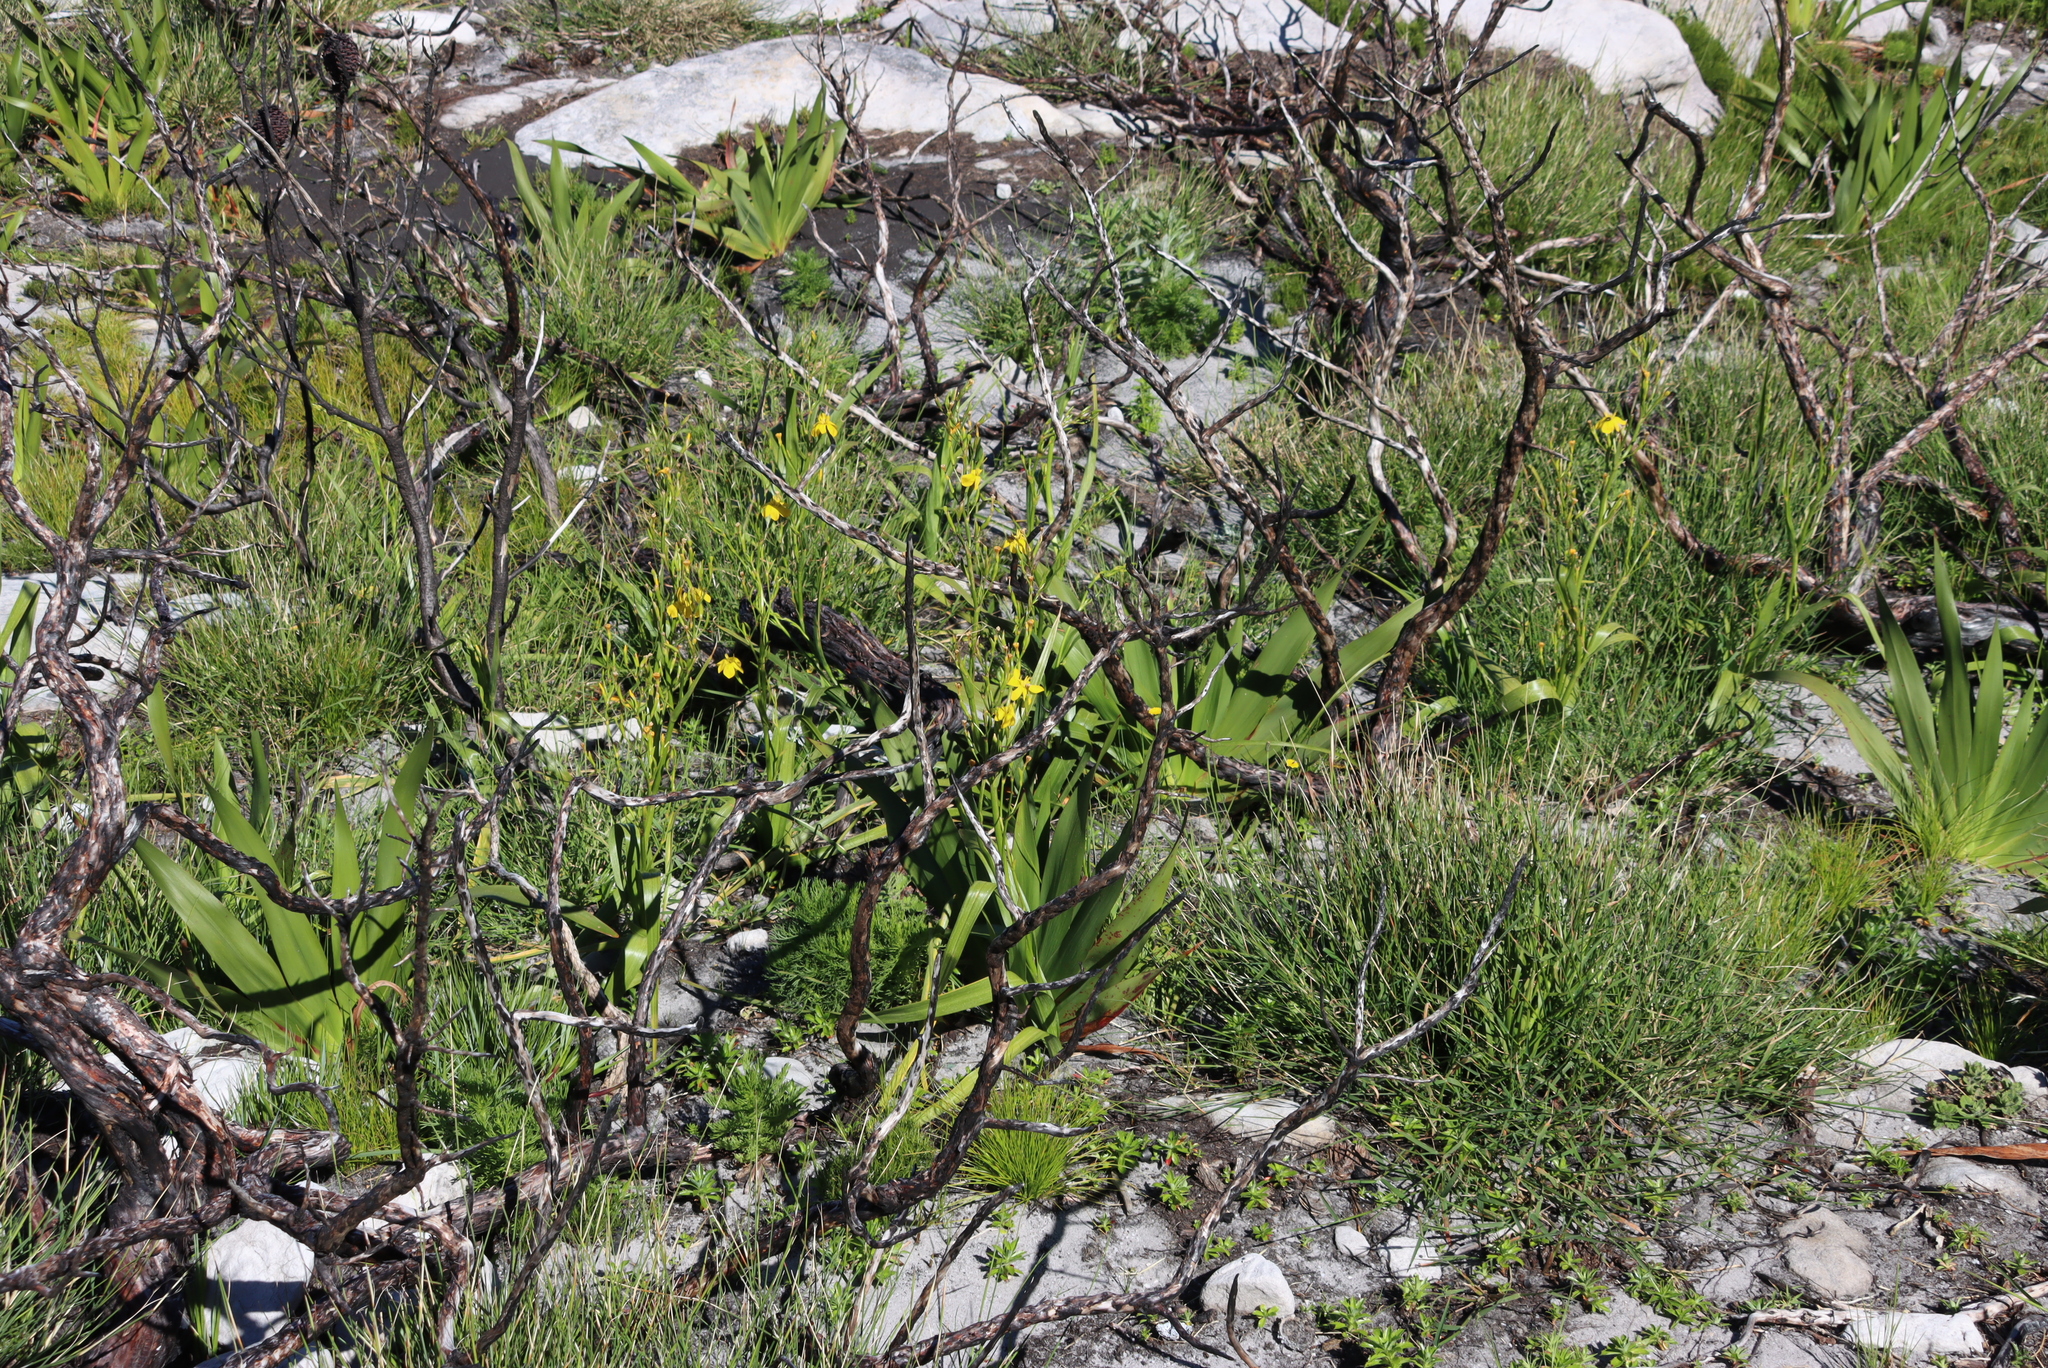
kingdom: Plantae
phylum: Tracheophyta
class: Liliopsida
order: Asparagales
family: Iridaceae
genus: Moraea
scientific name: Moraea ramosissima
